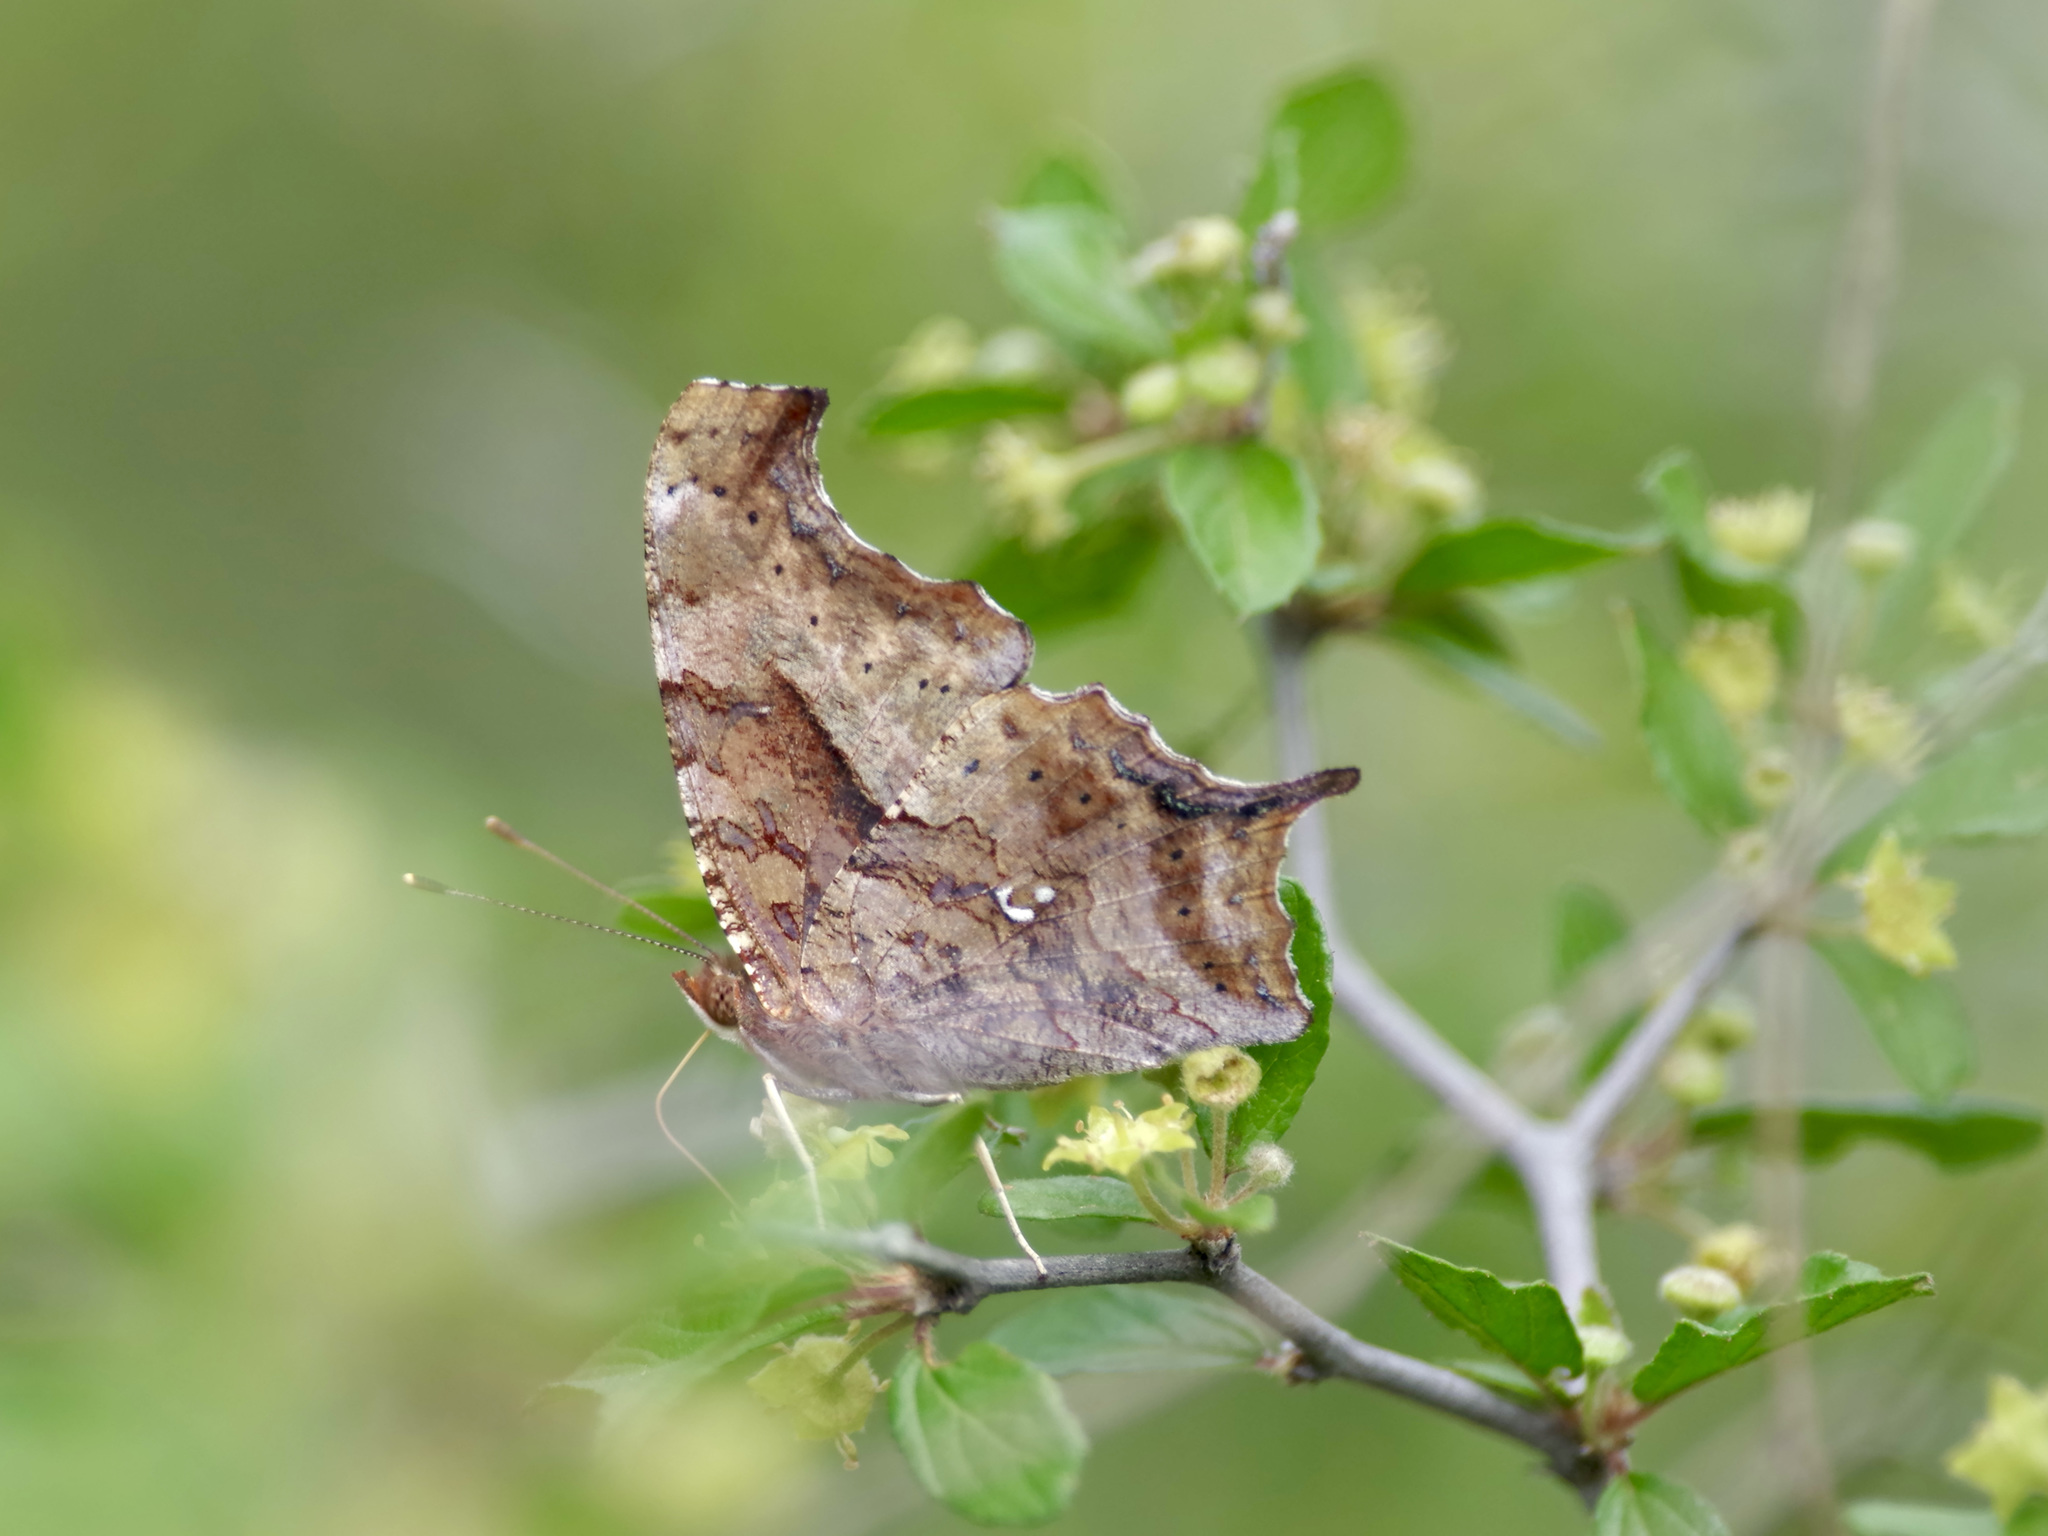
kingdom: Animalia
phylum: Arthropoda
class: Insecta
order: Lepidoptera
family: Nymphalidae
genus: Polygonia
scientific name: Polygonia interrogationis
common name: Question mark
